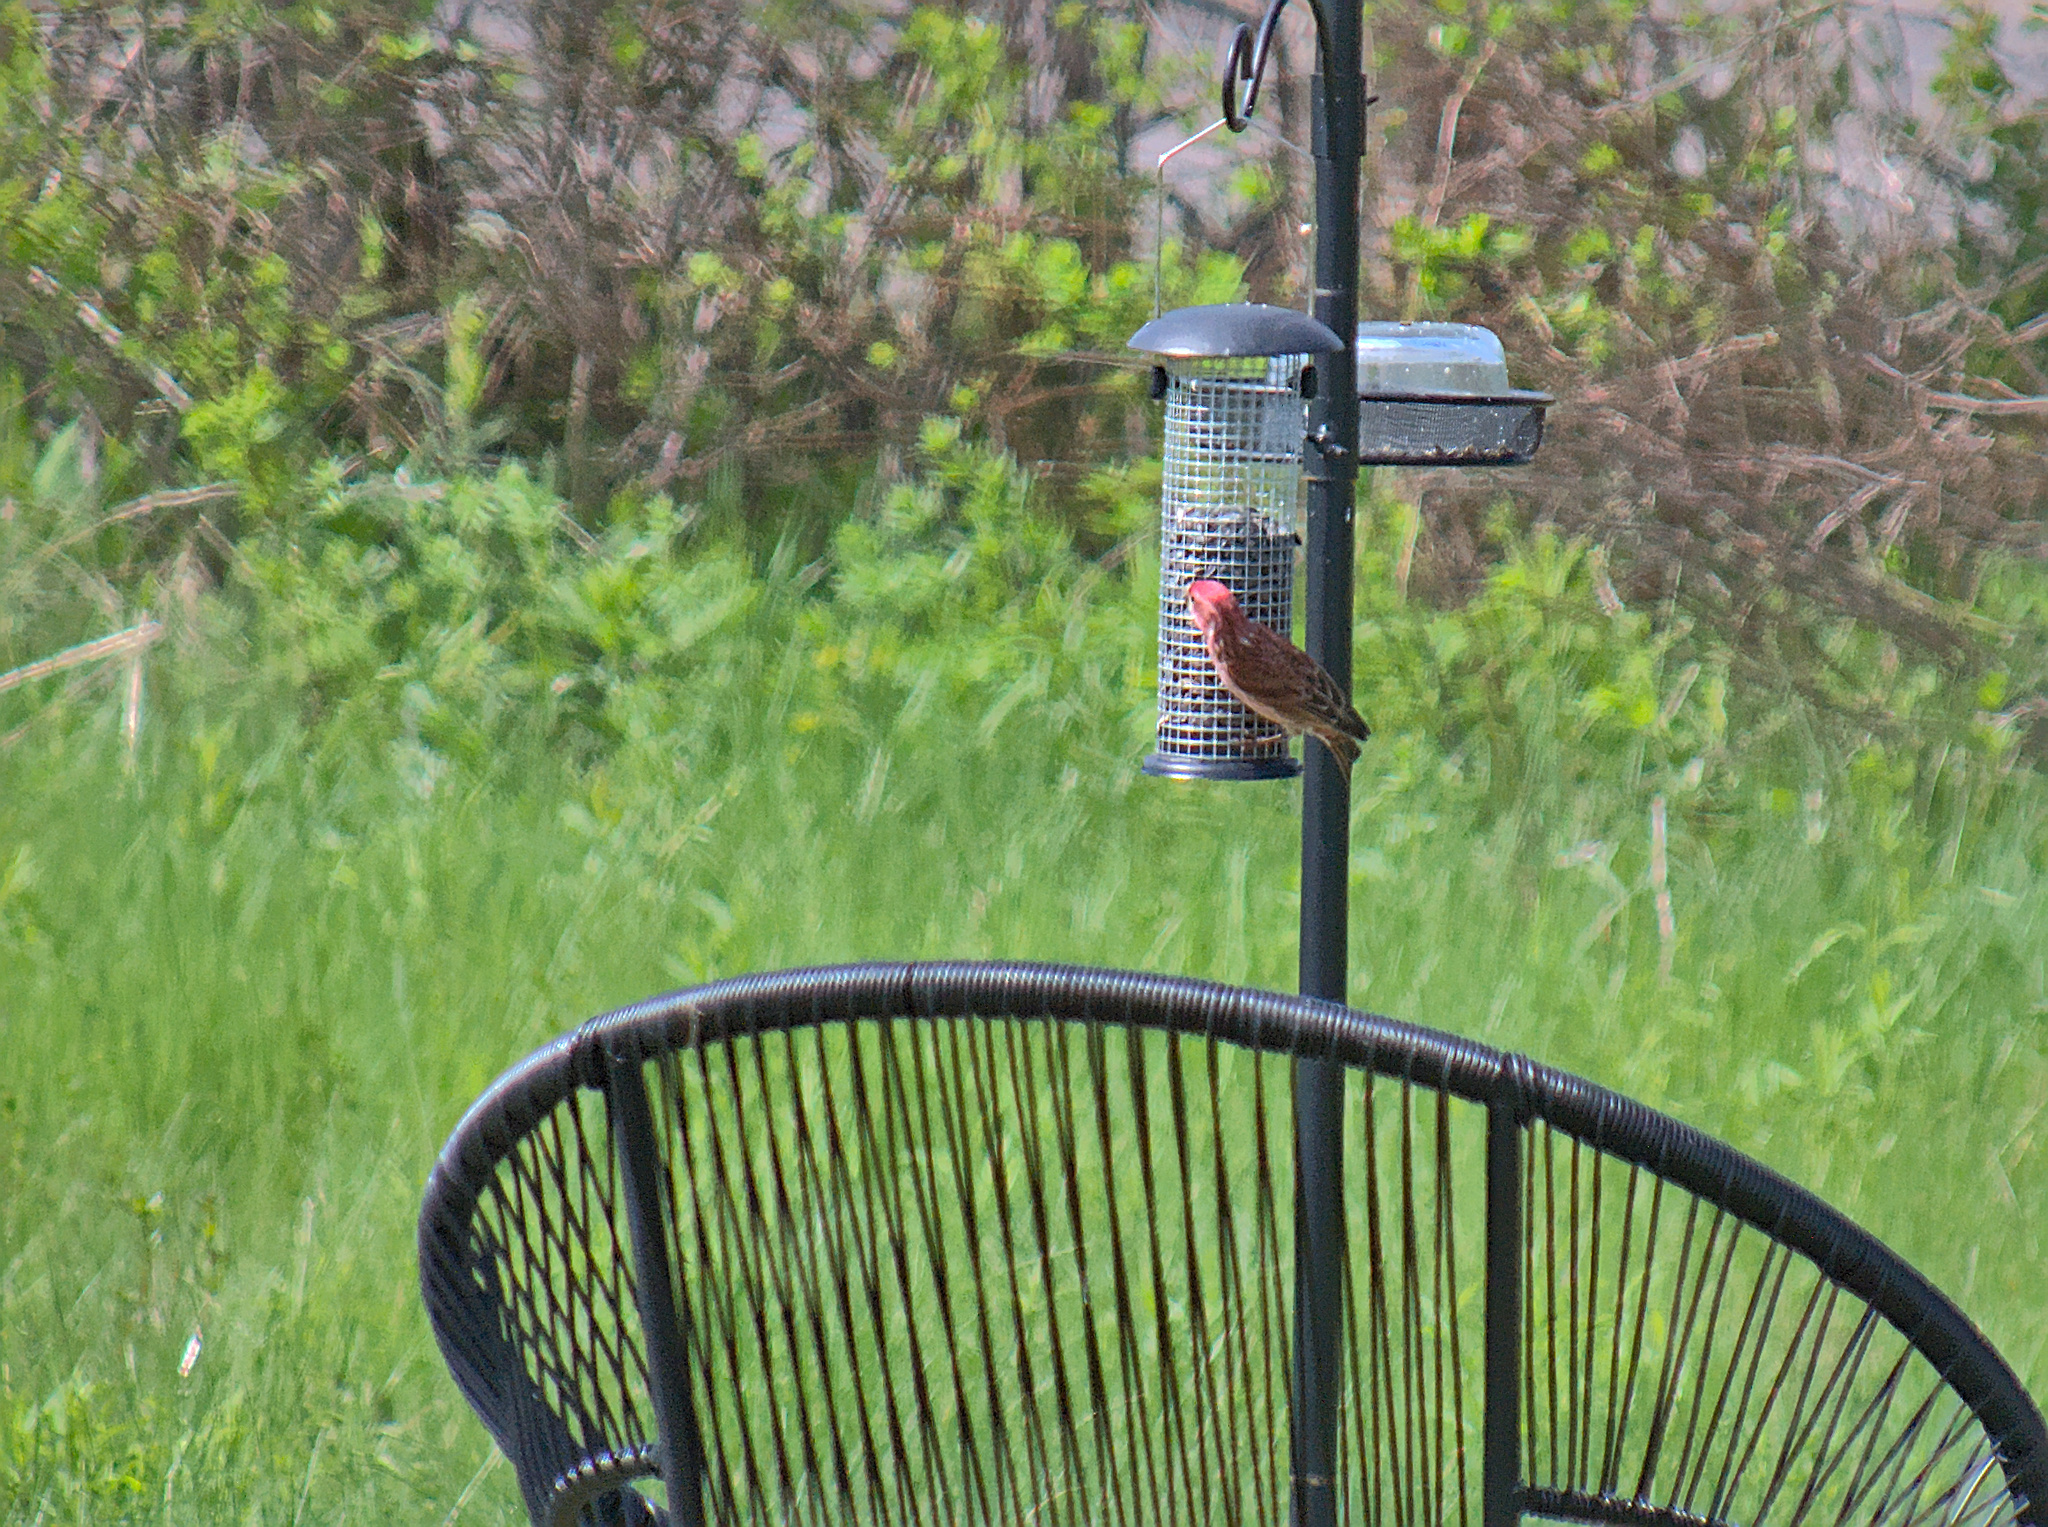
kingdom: Animalia
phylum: Chordata
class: Aves
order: Passeriformes
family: Fringillidae
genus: Haemorhous
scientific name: Haemorhous purpureus
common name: Purple finch
